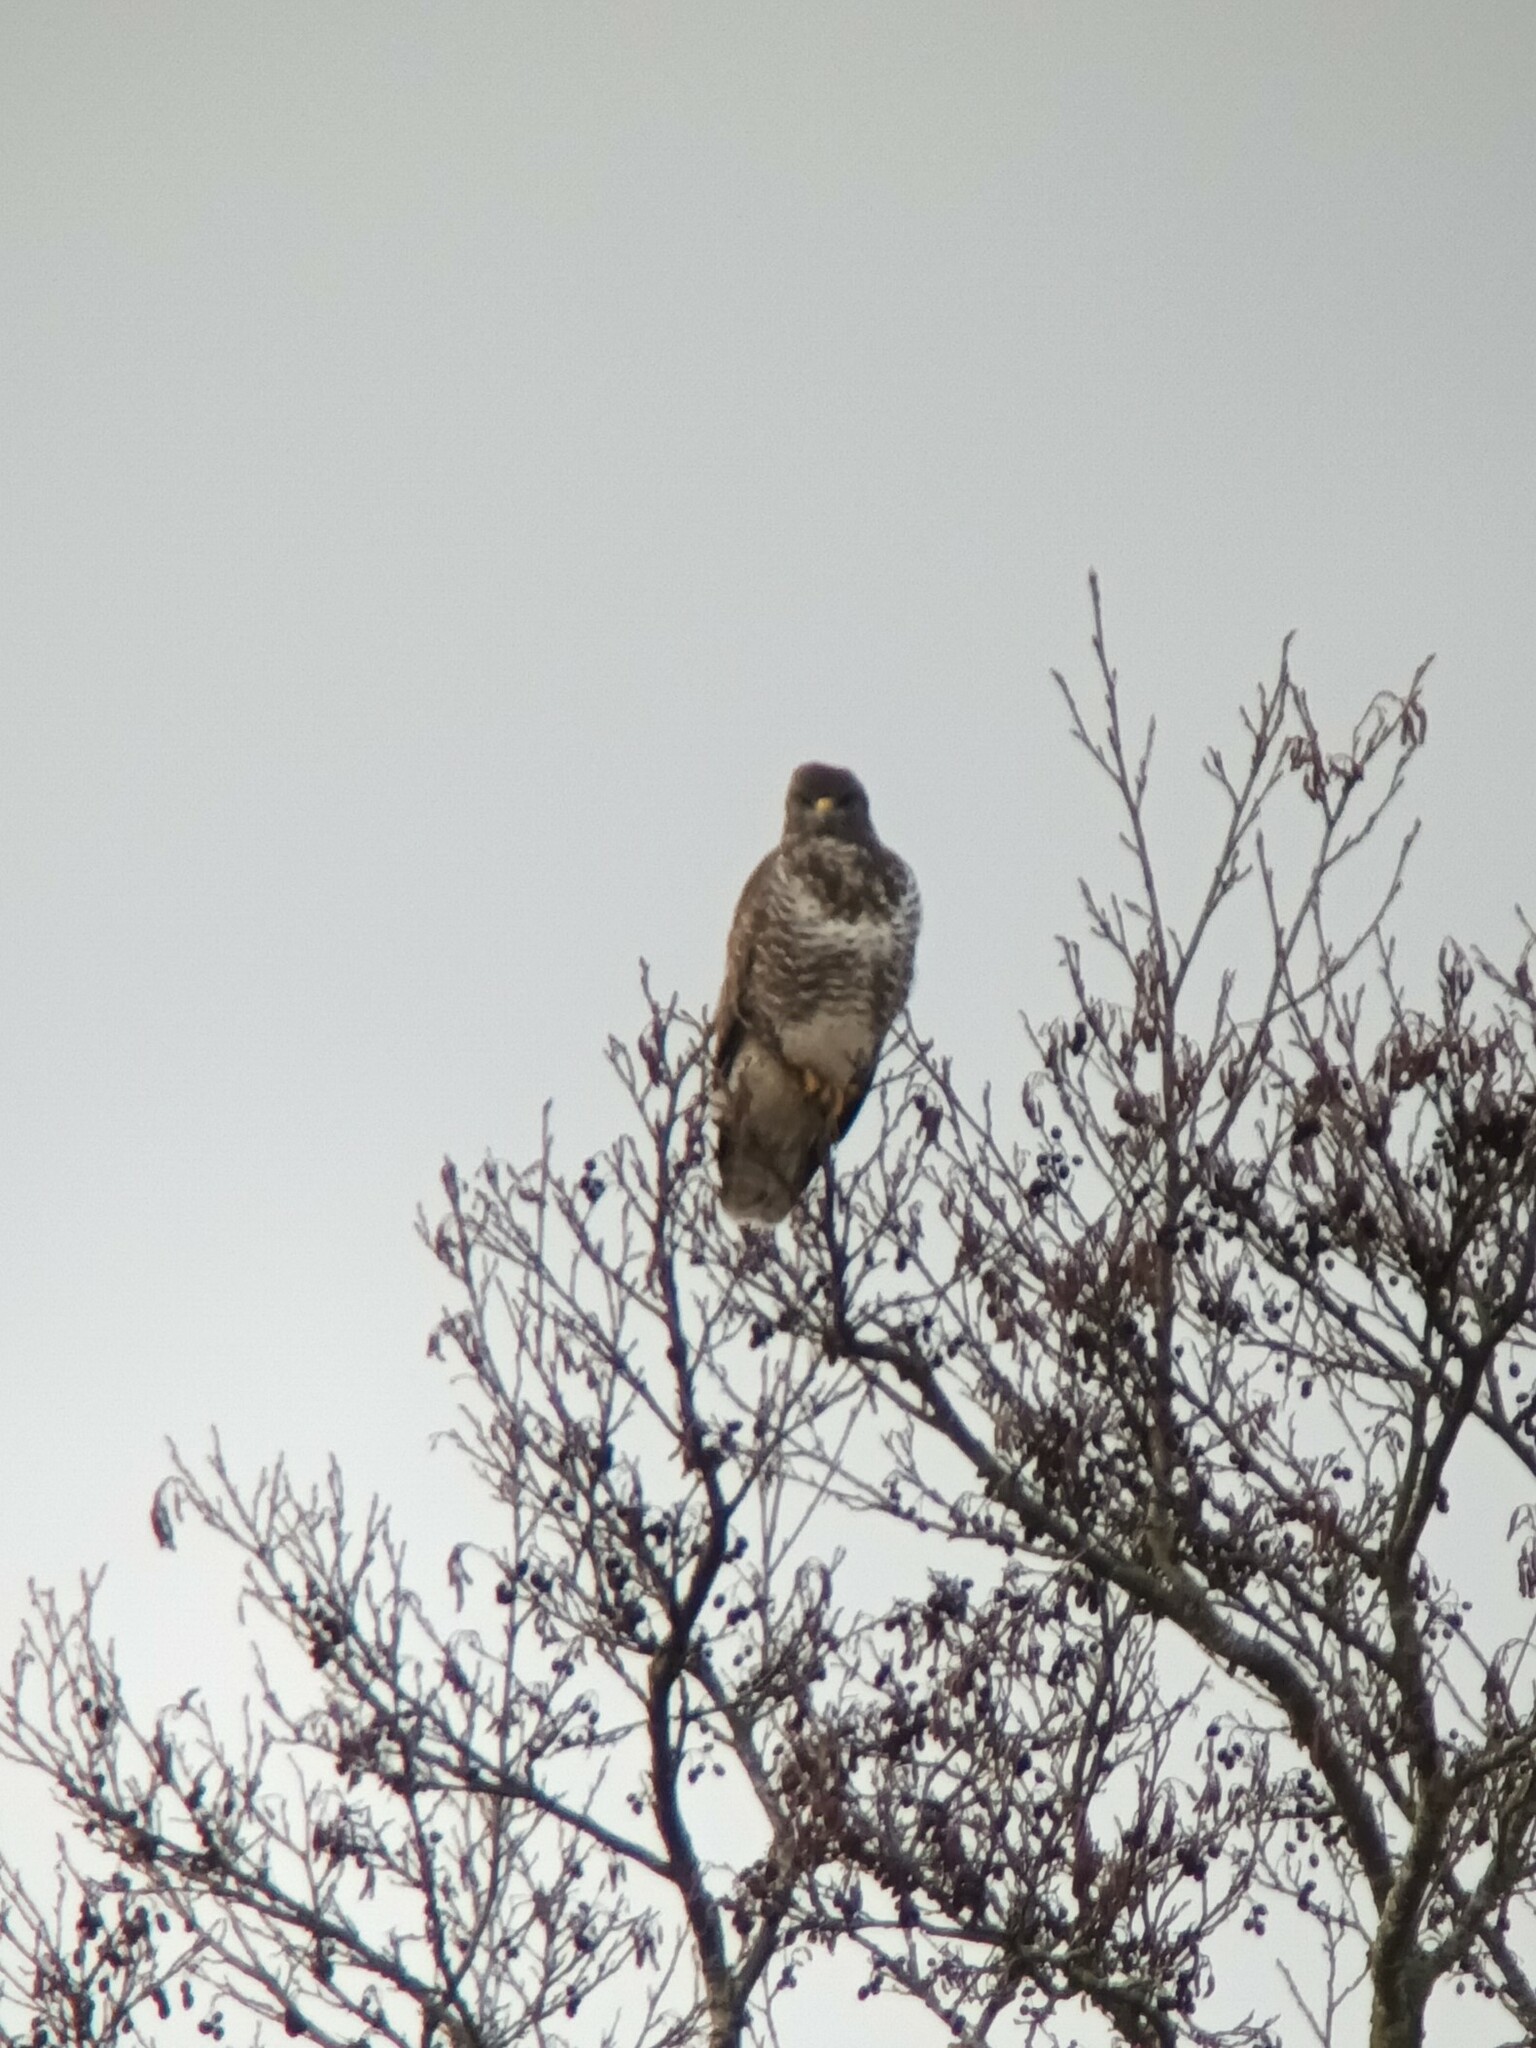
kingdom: Animalia
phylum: Chordata
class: Aves
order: Accipitriformes
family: Accipitridae
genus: Buteo
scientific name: Buteo buteo
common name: Common buzzard
